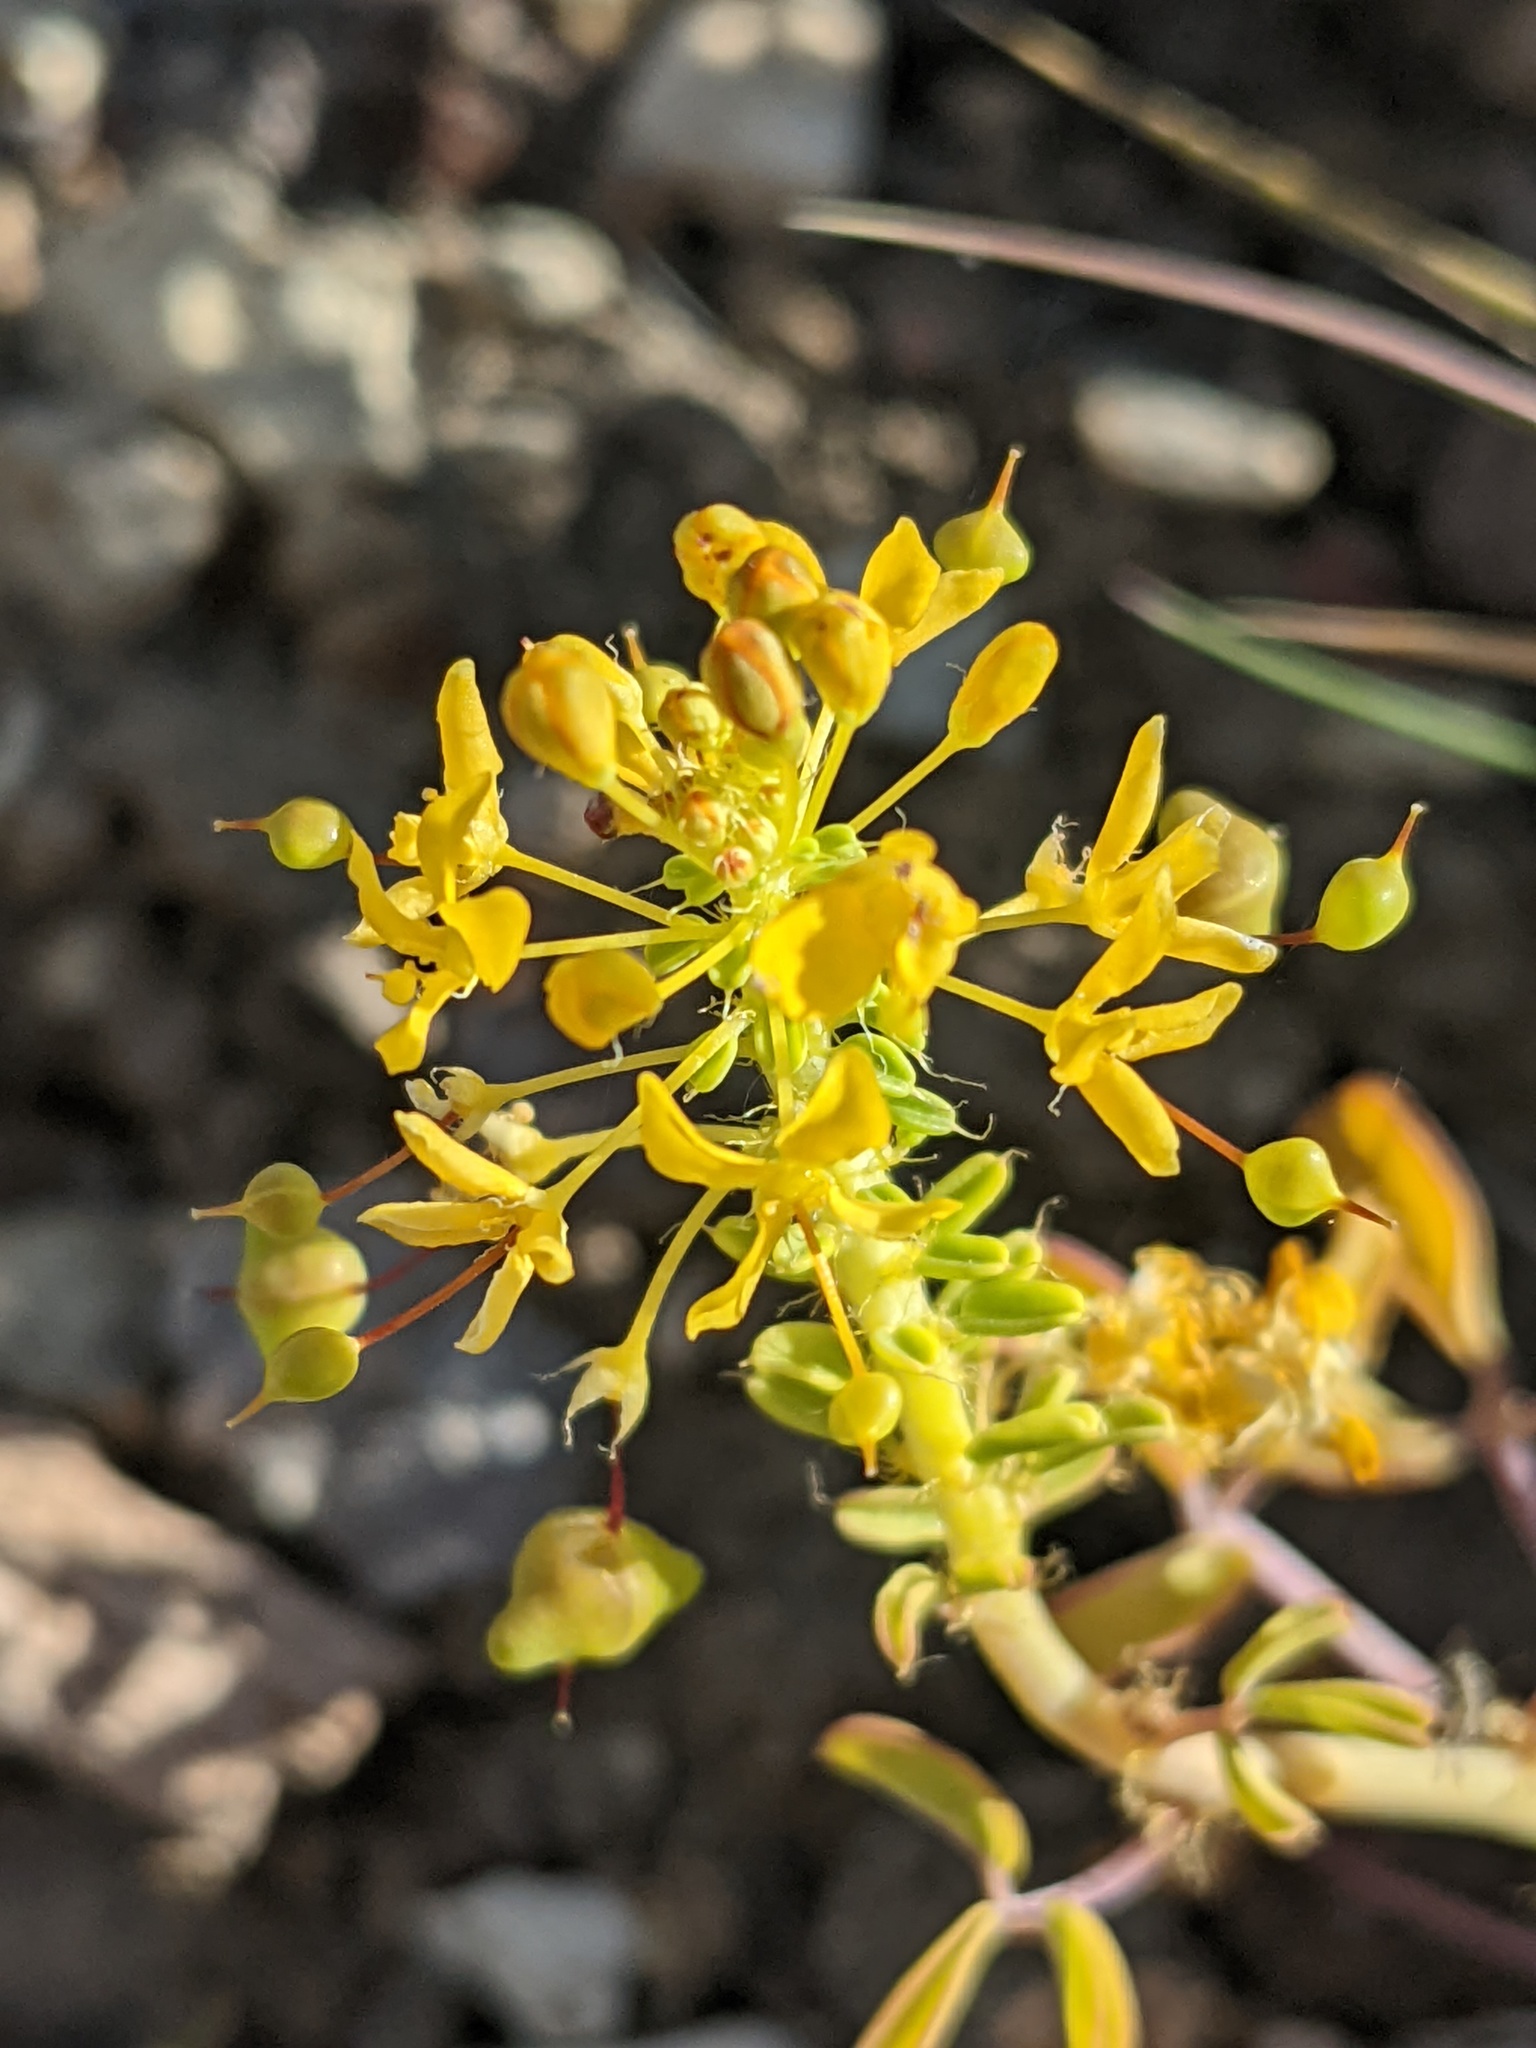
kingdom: Plantae
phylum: Tracheophyta
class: Magnoliopsida
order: Brassicales
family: Cleomaceae
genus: Cleomella
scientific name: Cleomella hillmanii
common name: Desert stinkweed
